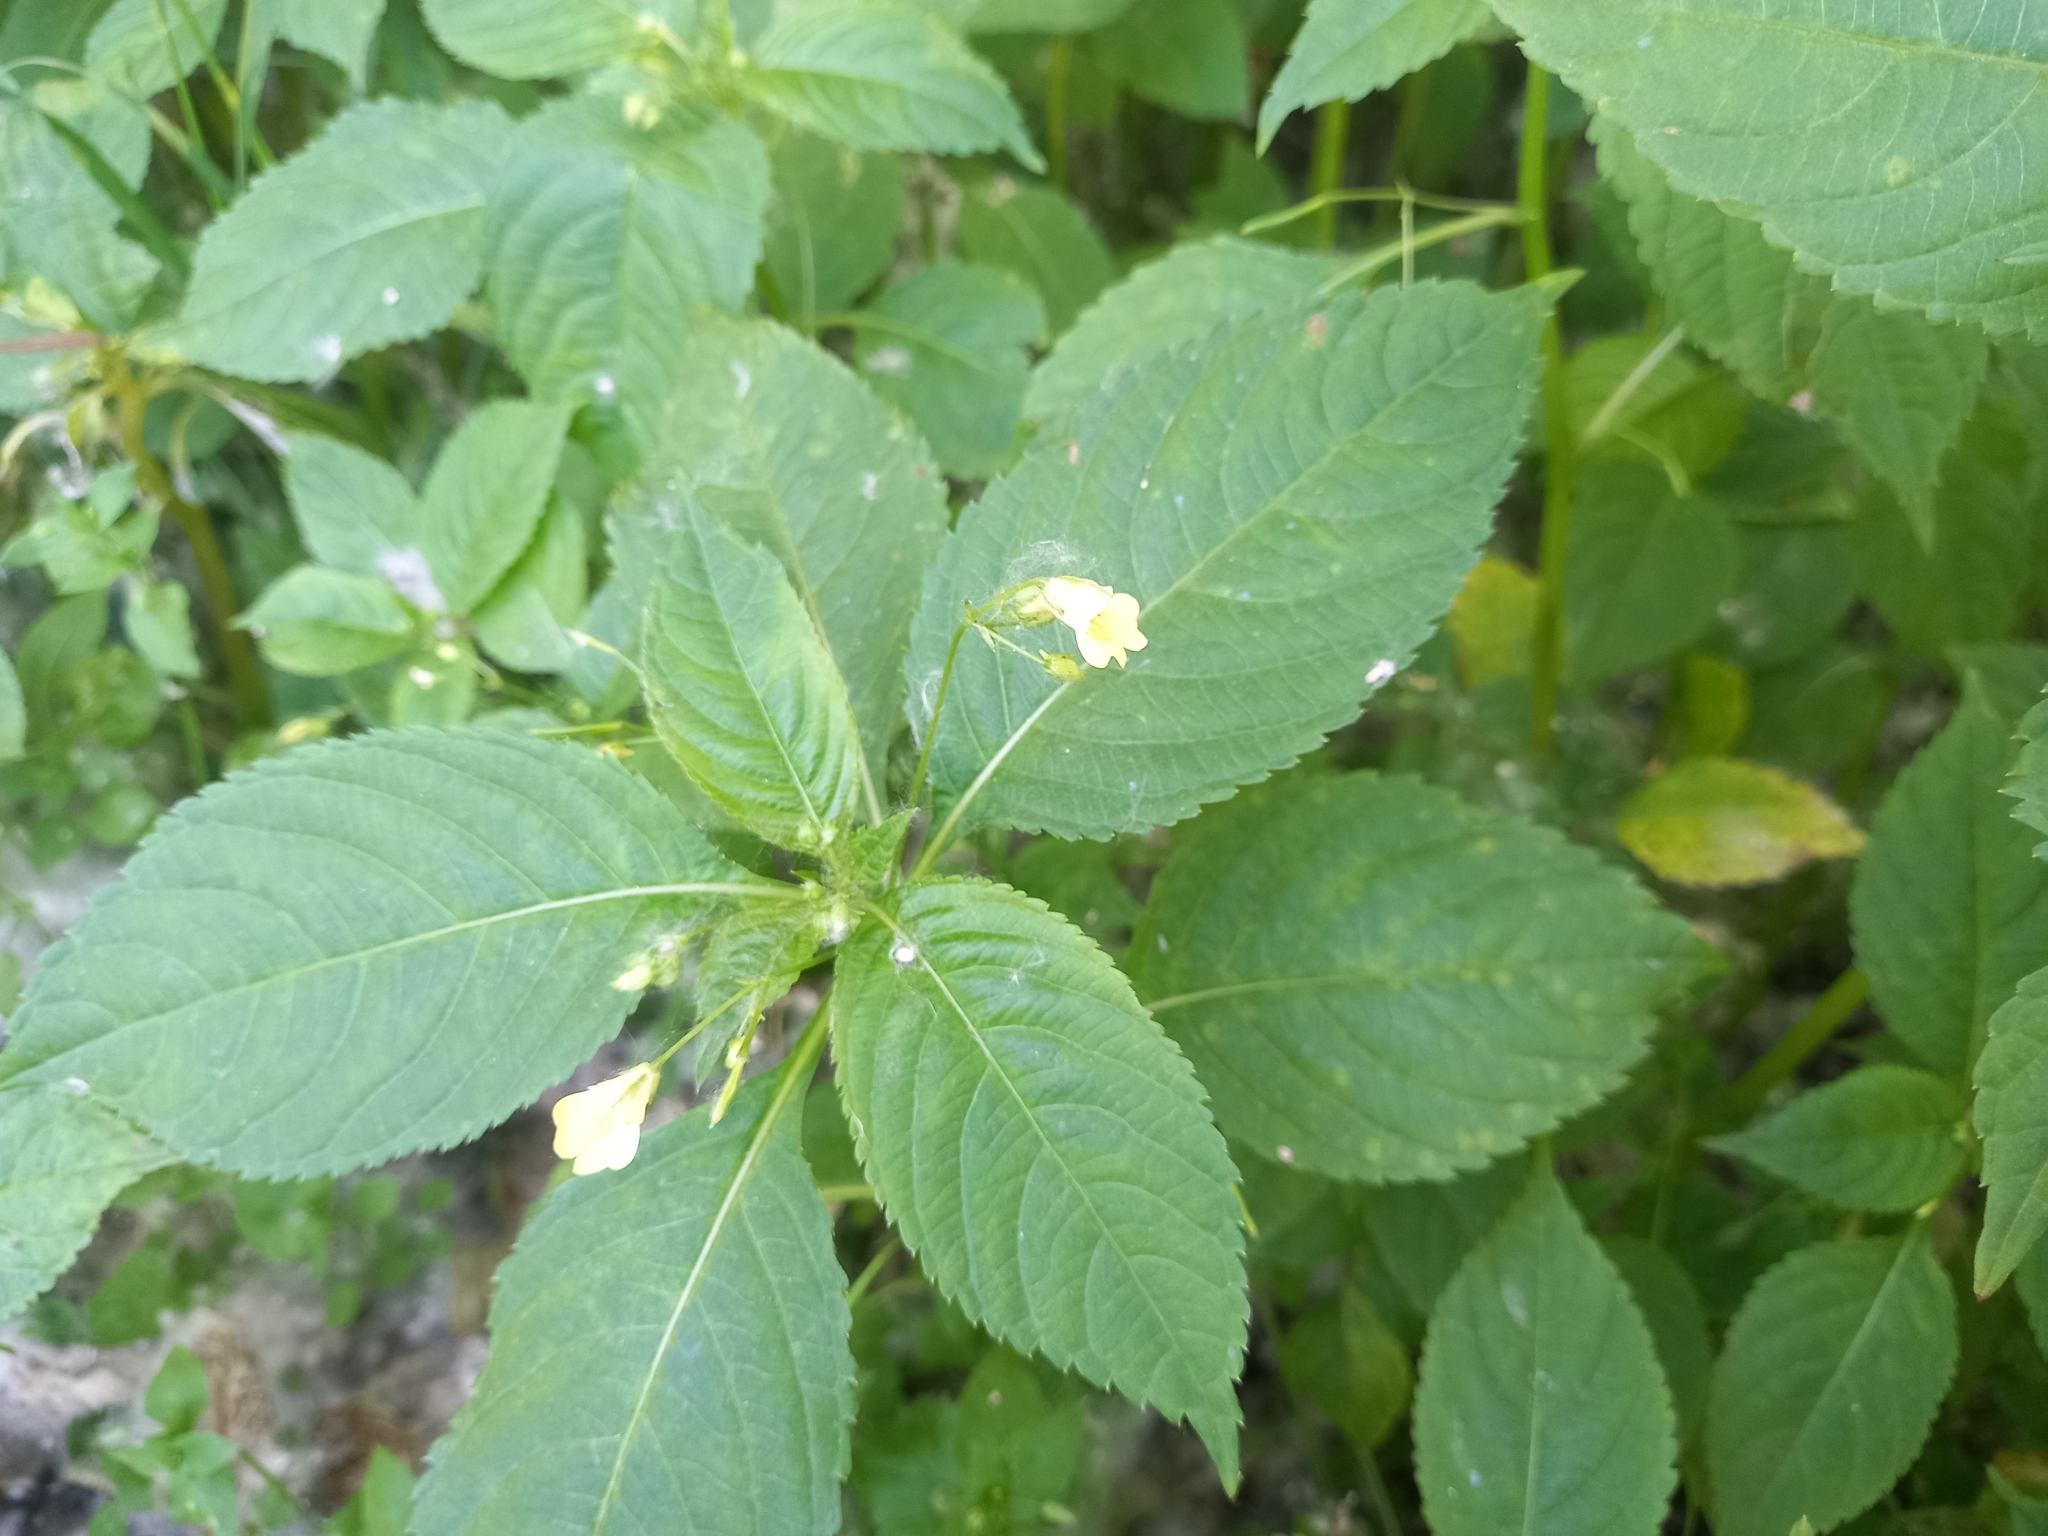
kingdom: Plantae
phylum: Tracheophyta
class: Magnoliopsida
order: Ericales
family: Balsaminaceae
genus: Impatiens
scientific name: Impatiens parviflora
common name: Small balsam
